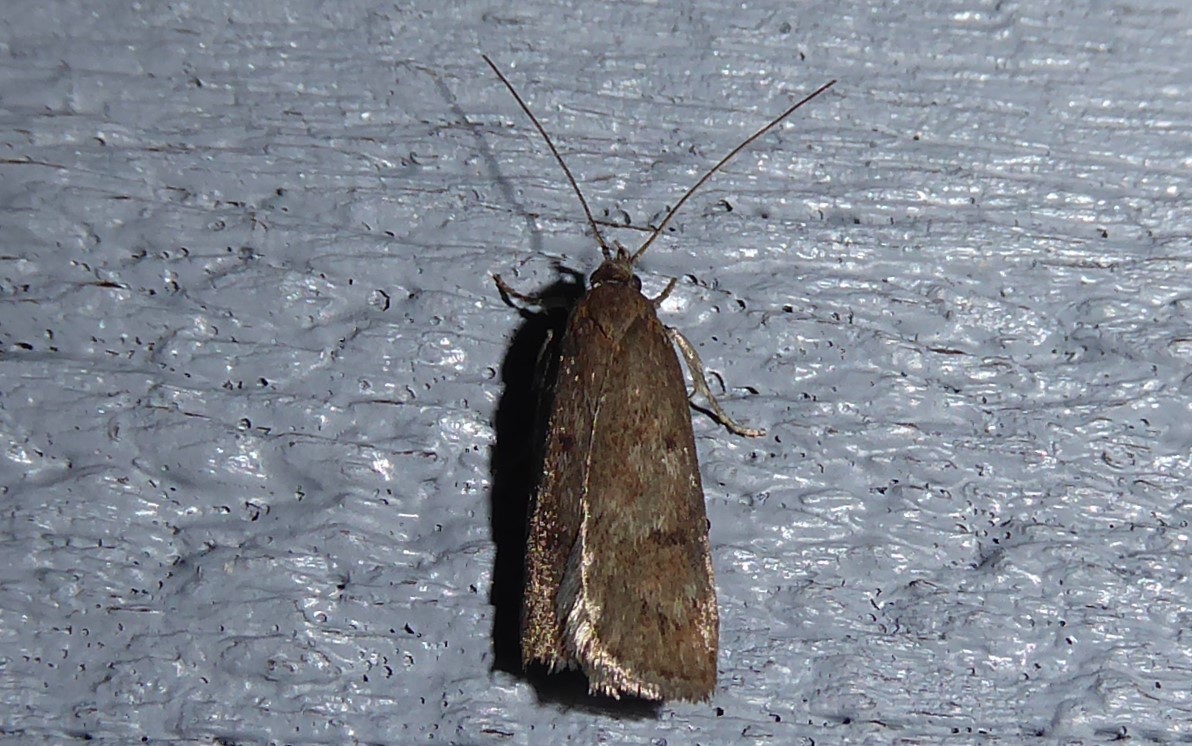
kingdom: Animalia
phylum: Arthropoda
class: Insecta
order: Lepidoptera
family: Depressariidae
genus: Phaeosaces
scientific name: Phaeosaces apocrypta
